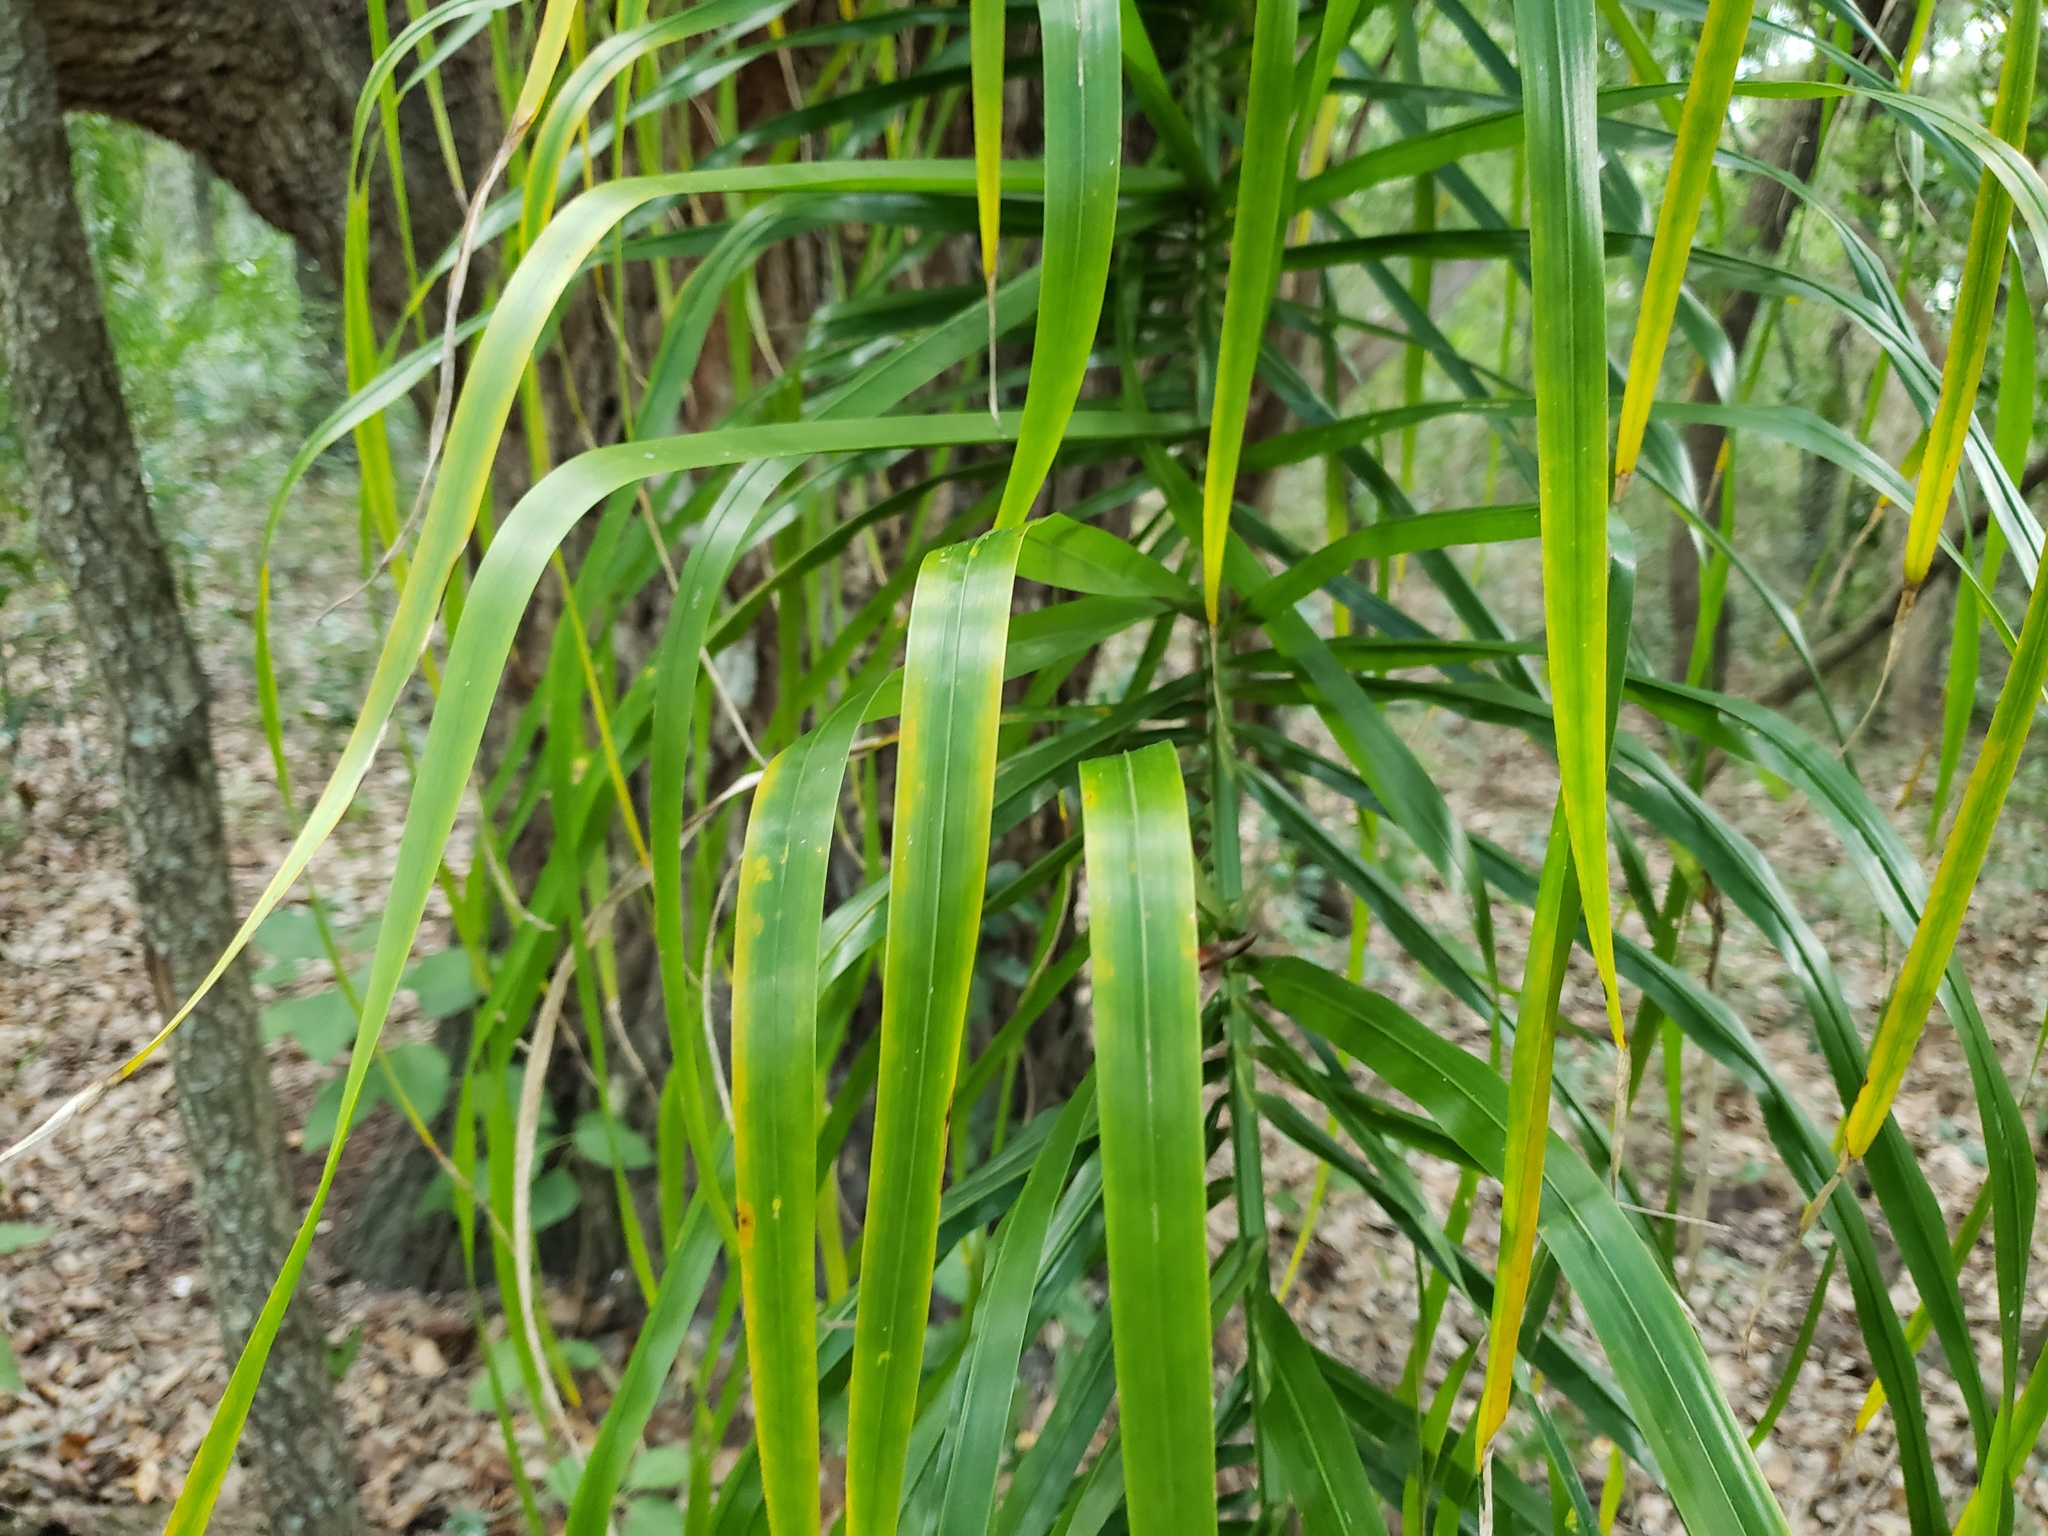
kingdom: Plantae
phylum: Tracheophyta
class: Liliopsida
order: Arecales
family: Arecaceae
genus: Syagrus
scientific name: Syagrus romanzoffiana
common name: Queen palm
